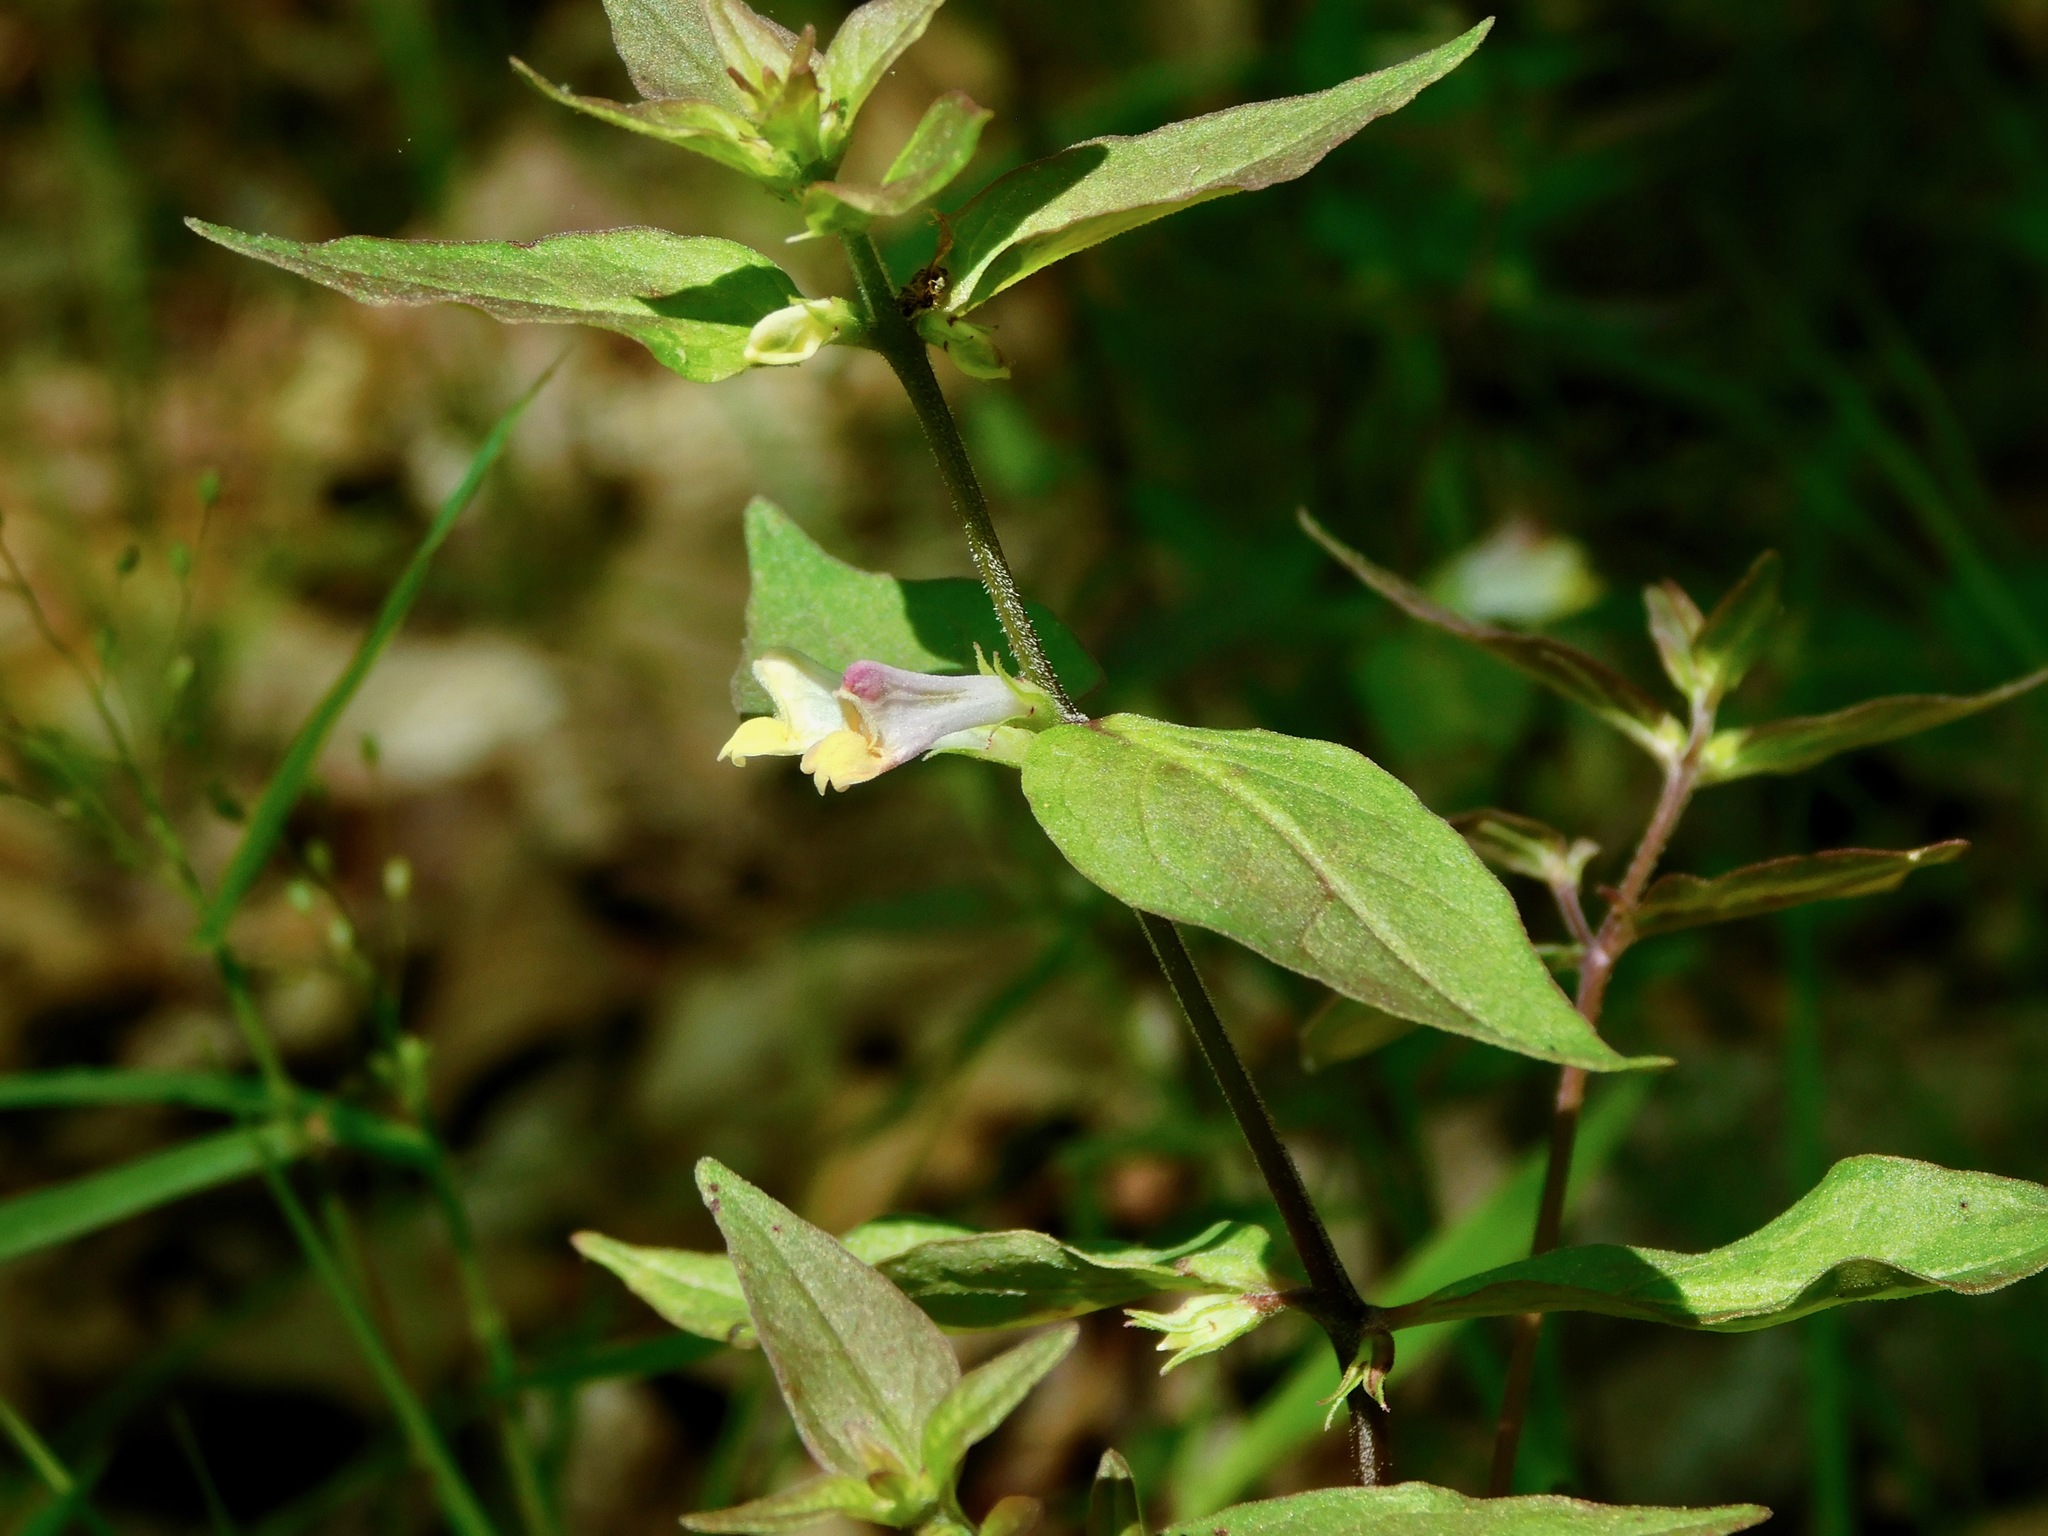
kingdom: Plantae
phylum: Tracheophyta
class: Magnoliopsida
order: Lamiales
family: Orobanchaceae
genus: Melampyrum
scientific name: Melampyrum lineare
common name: American cow-wheat
